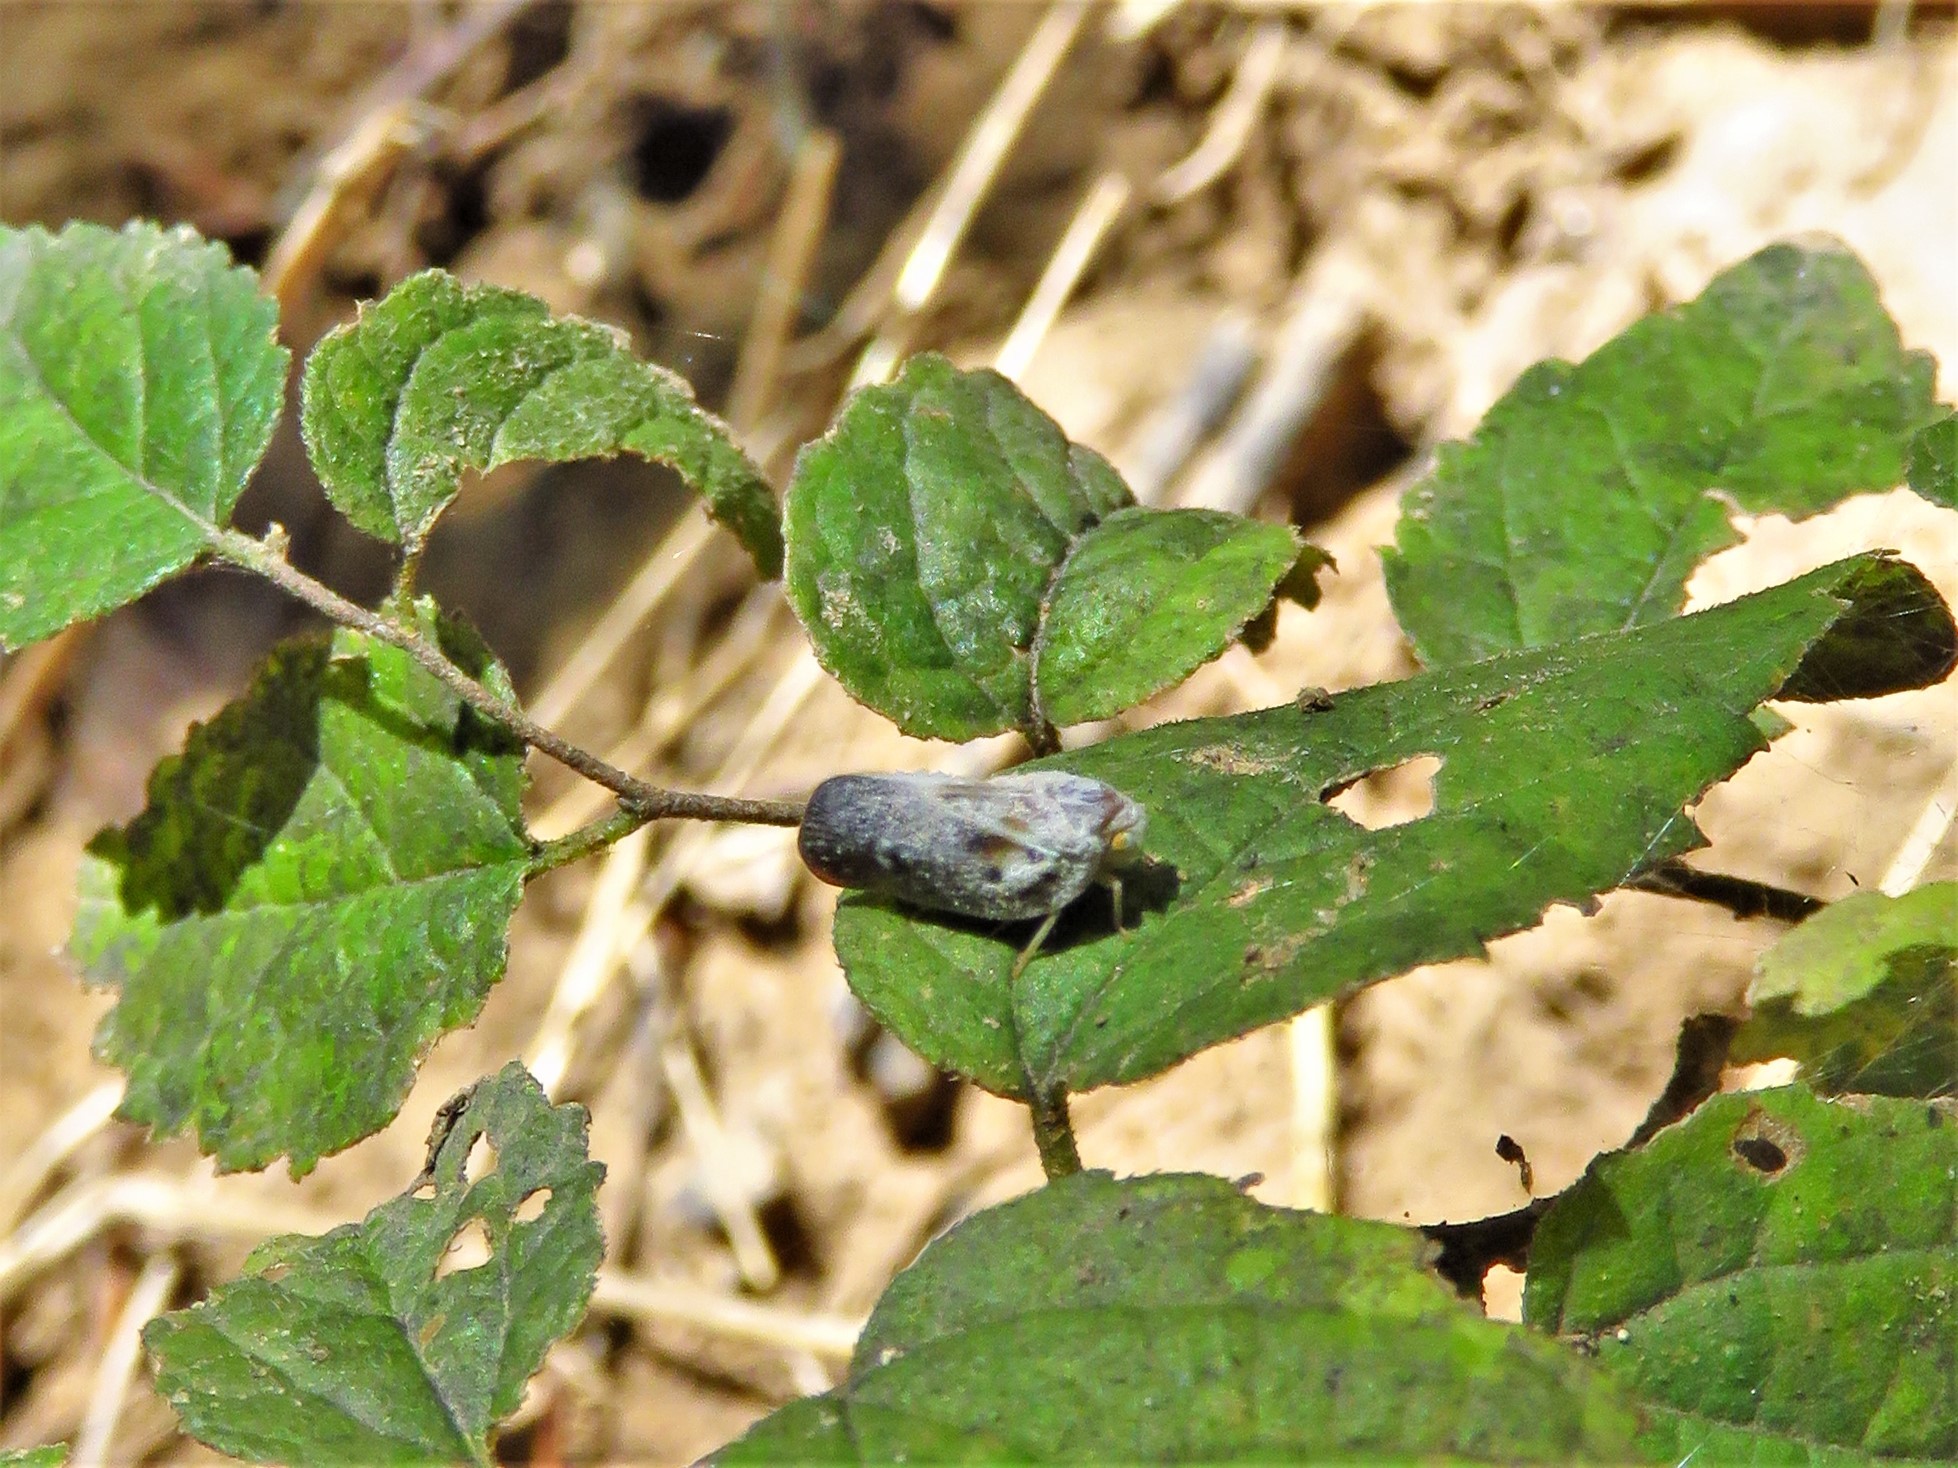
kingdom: Animalia
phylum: Arthropoda
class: Insecta
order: Hemiptera
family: Flatidae
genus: Metcalfa
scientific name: Metcalfa pruinosa
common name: Citrus flatid planthopper
